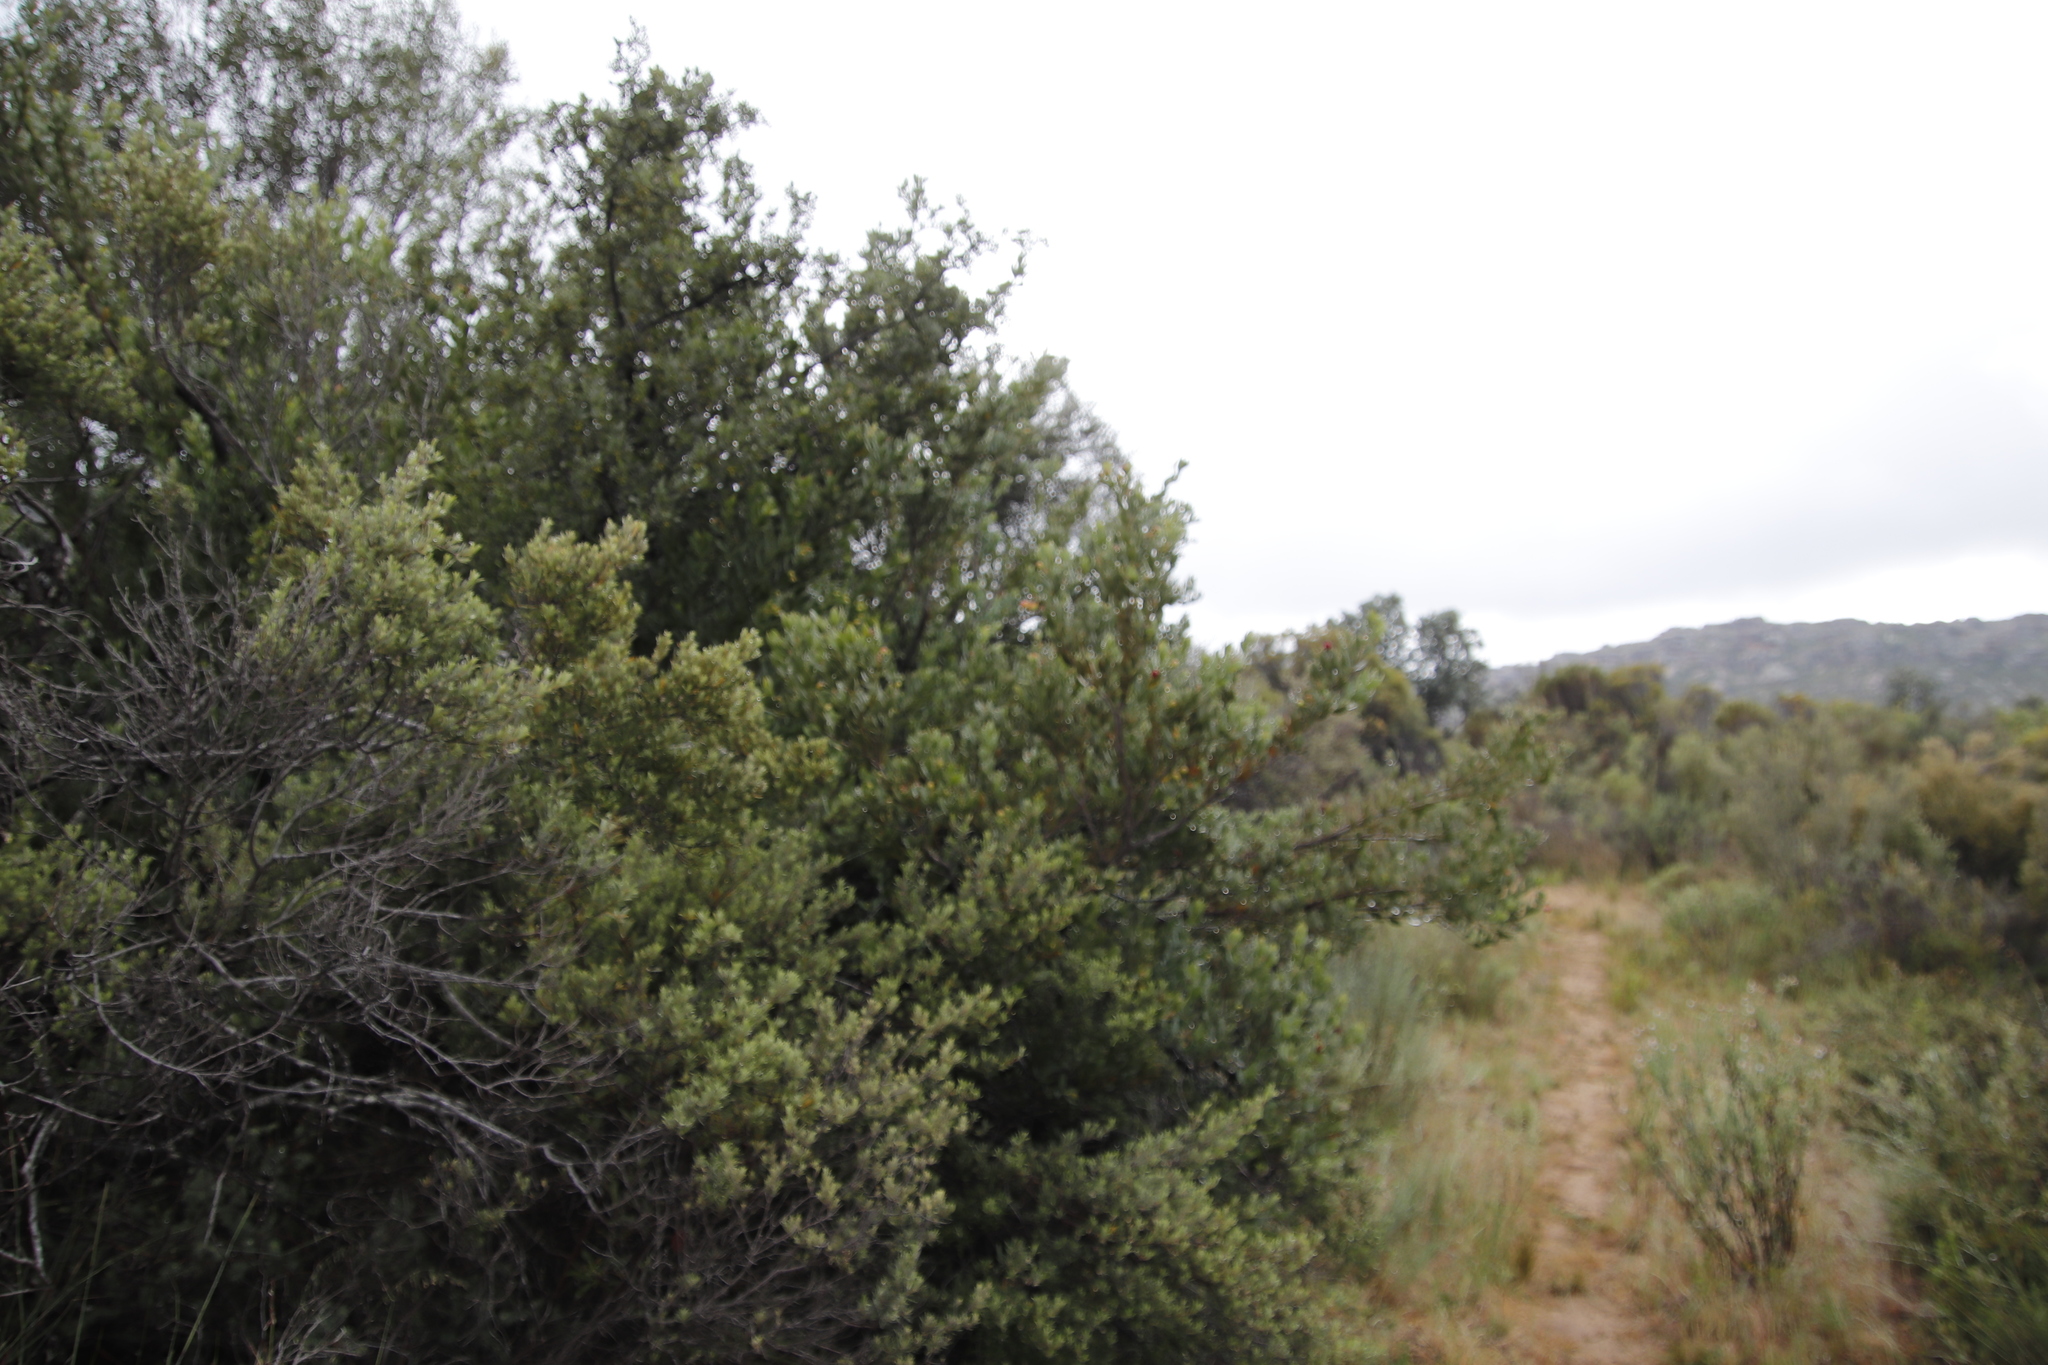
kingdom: Plantae
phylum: Tracheophyta
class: Magnoliopsida
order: Ericales
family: Ebenaceae
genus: Diospyros
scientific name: Diospyros glabra
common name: Fynbos star apple
